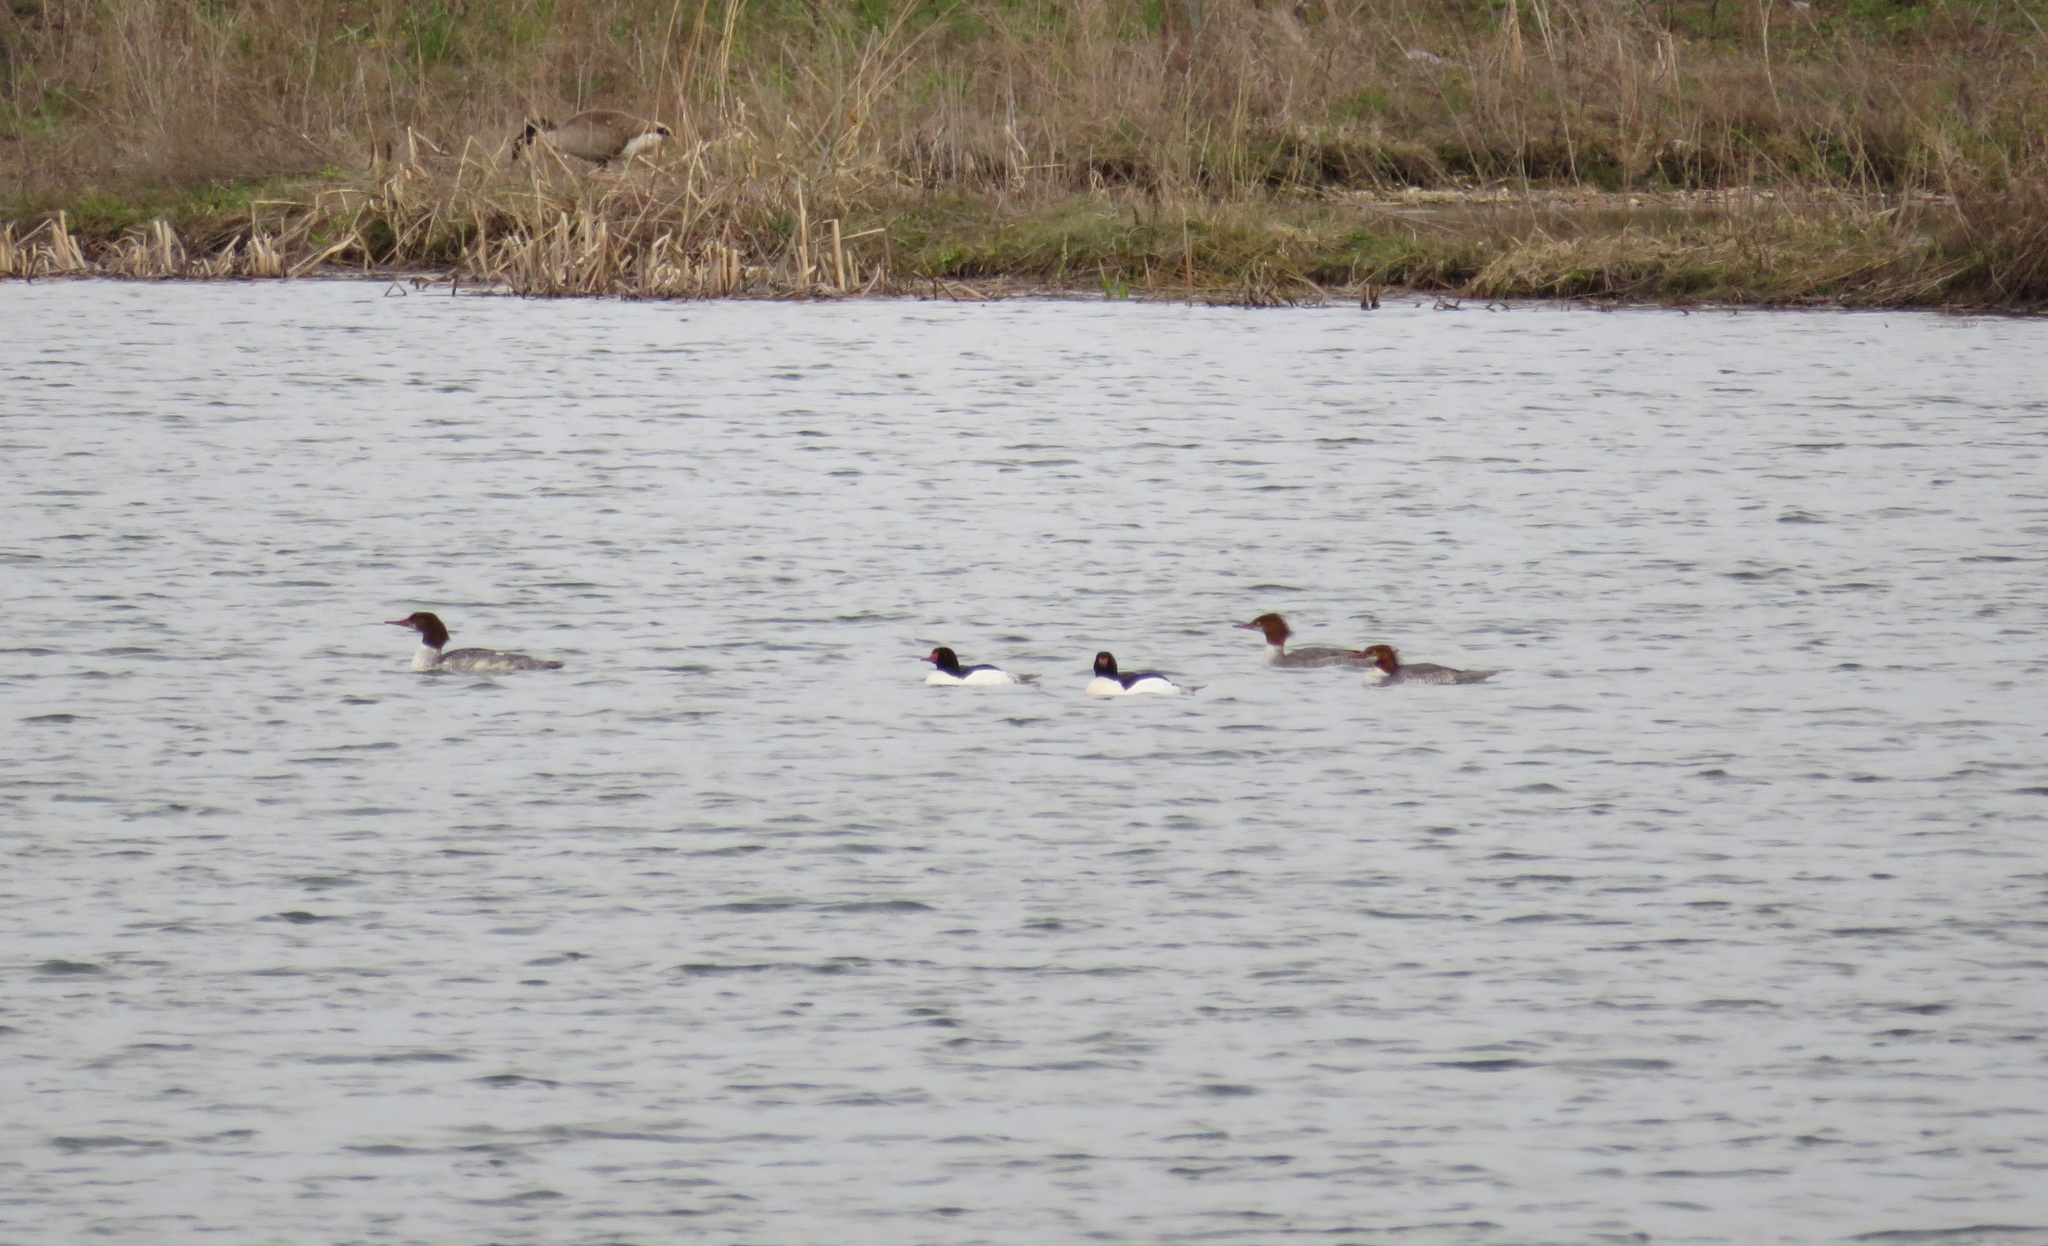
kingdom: Animalia
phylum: Chordata
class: Aves
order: Anseriformes
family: Anatidae
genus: Mergus
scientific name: Mergus merganser
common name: Common merganser
